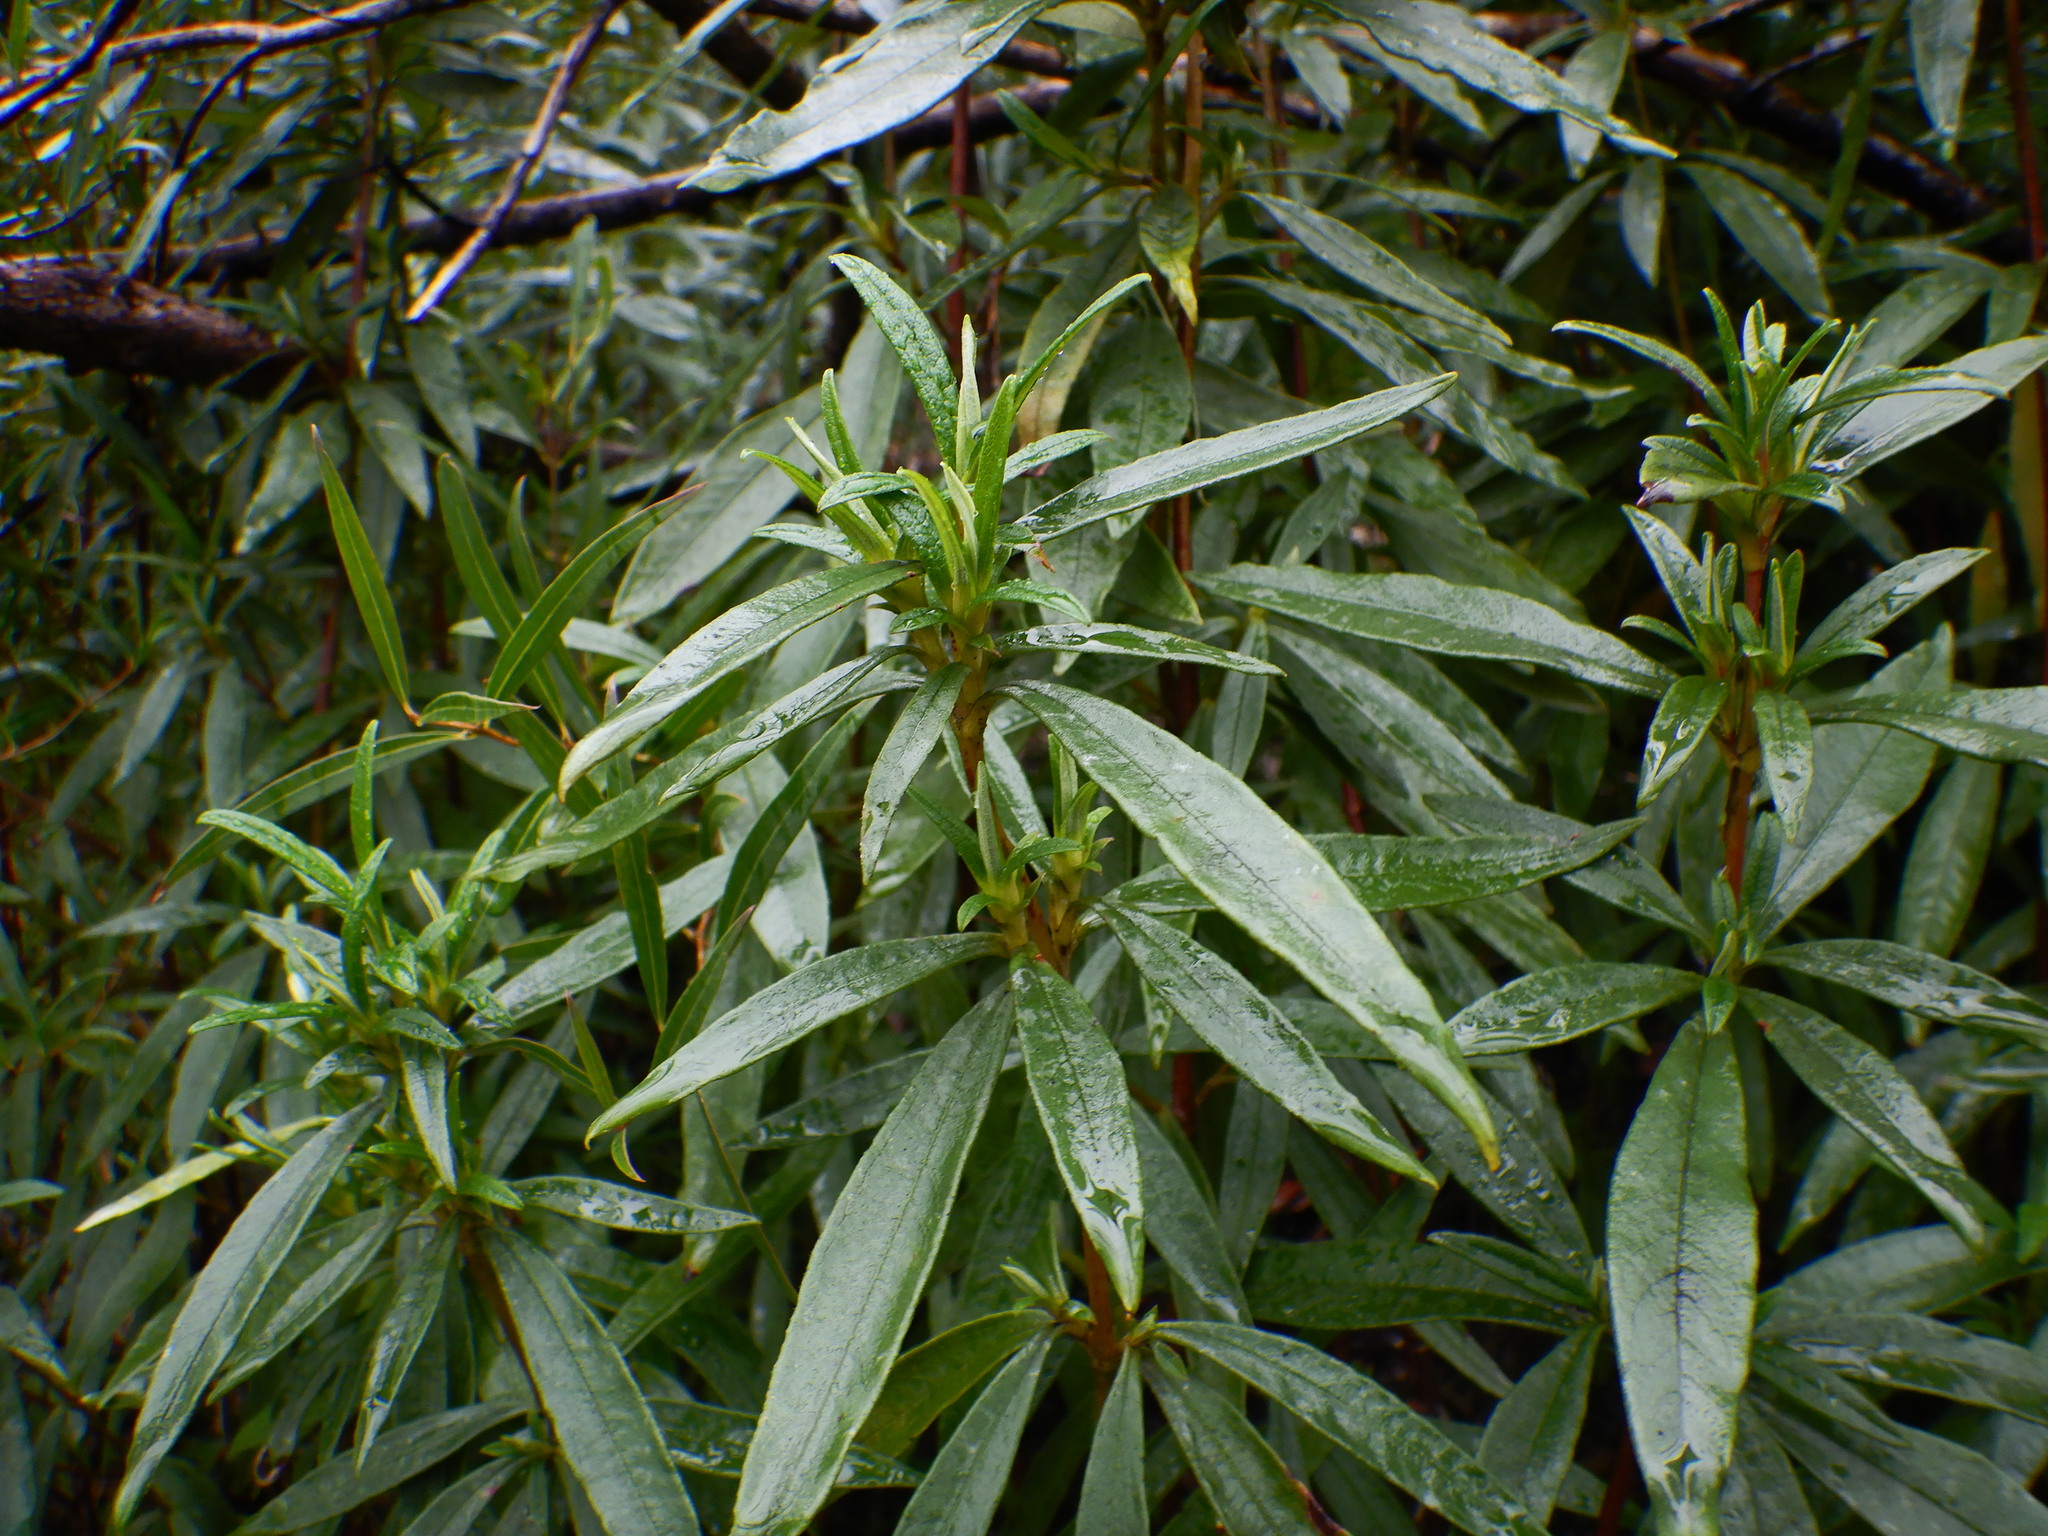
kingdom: Plantae
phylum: Tracheophyta
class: Magnoliopsida
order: Malvales
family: Cistaceae
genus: Cistus
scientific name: Cistus ladanifer
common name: Common gum cistus
